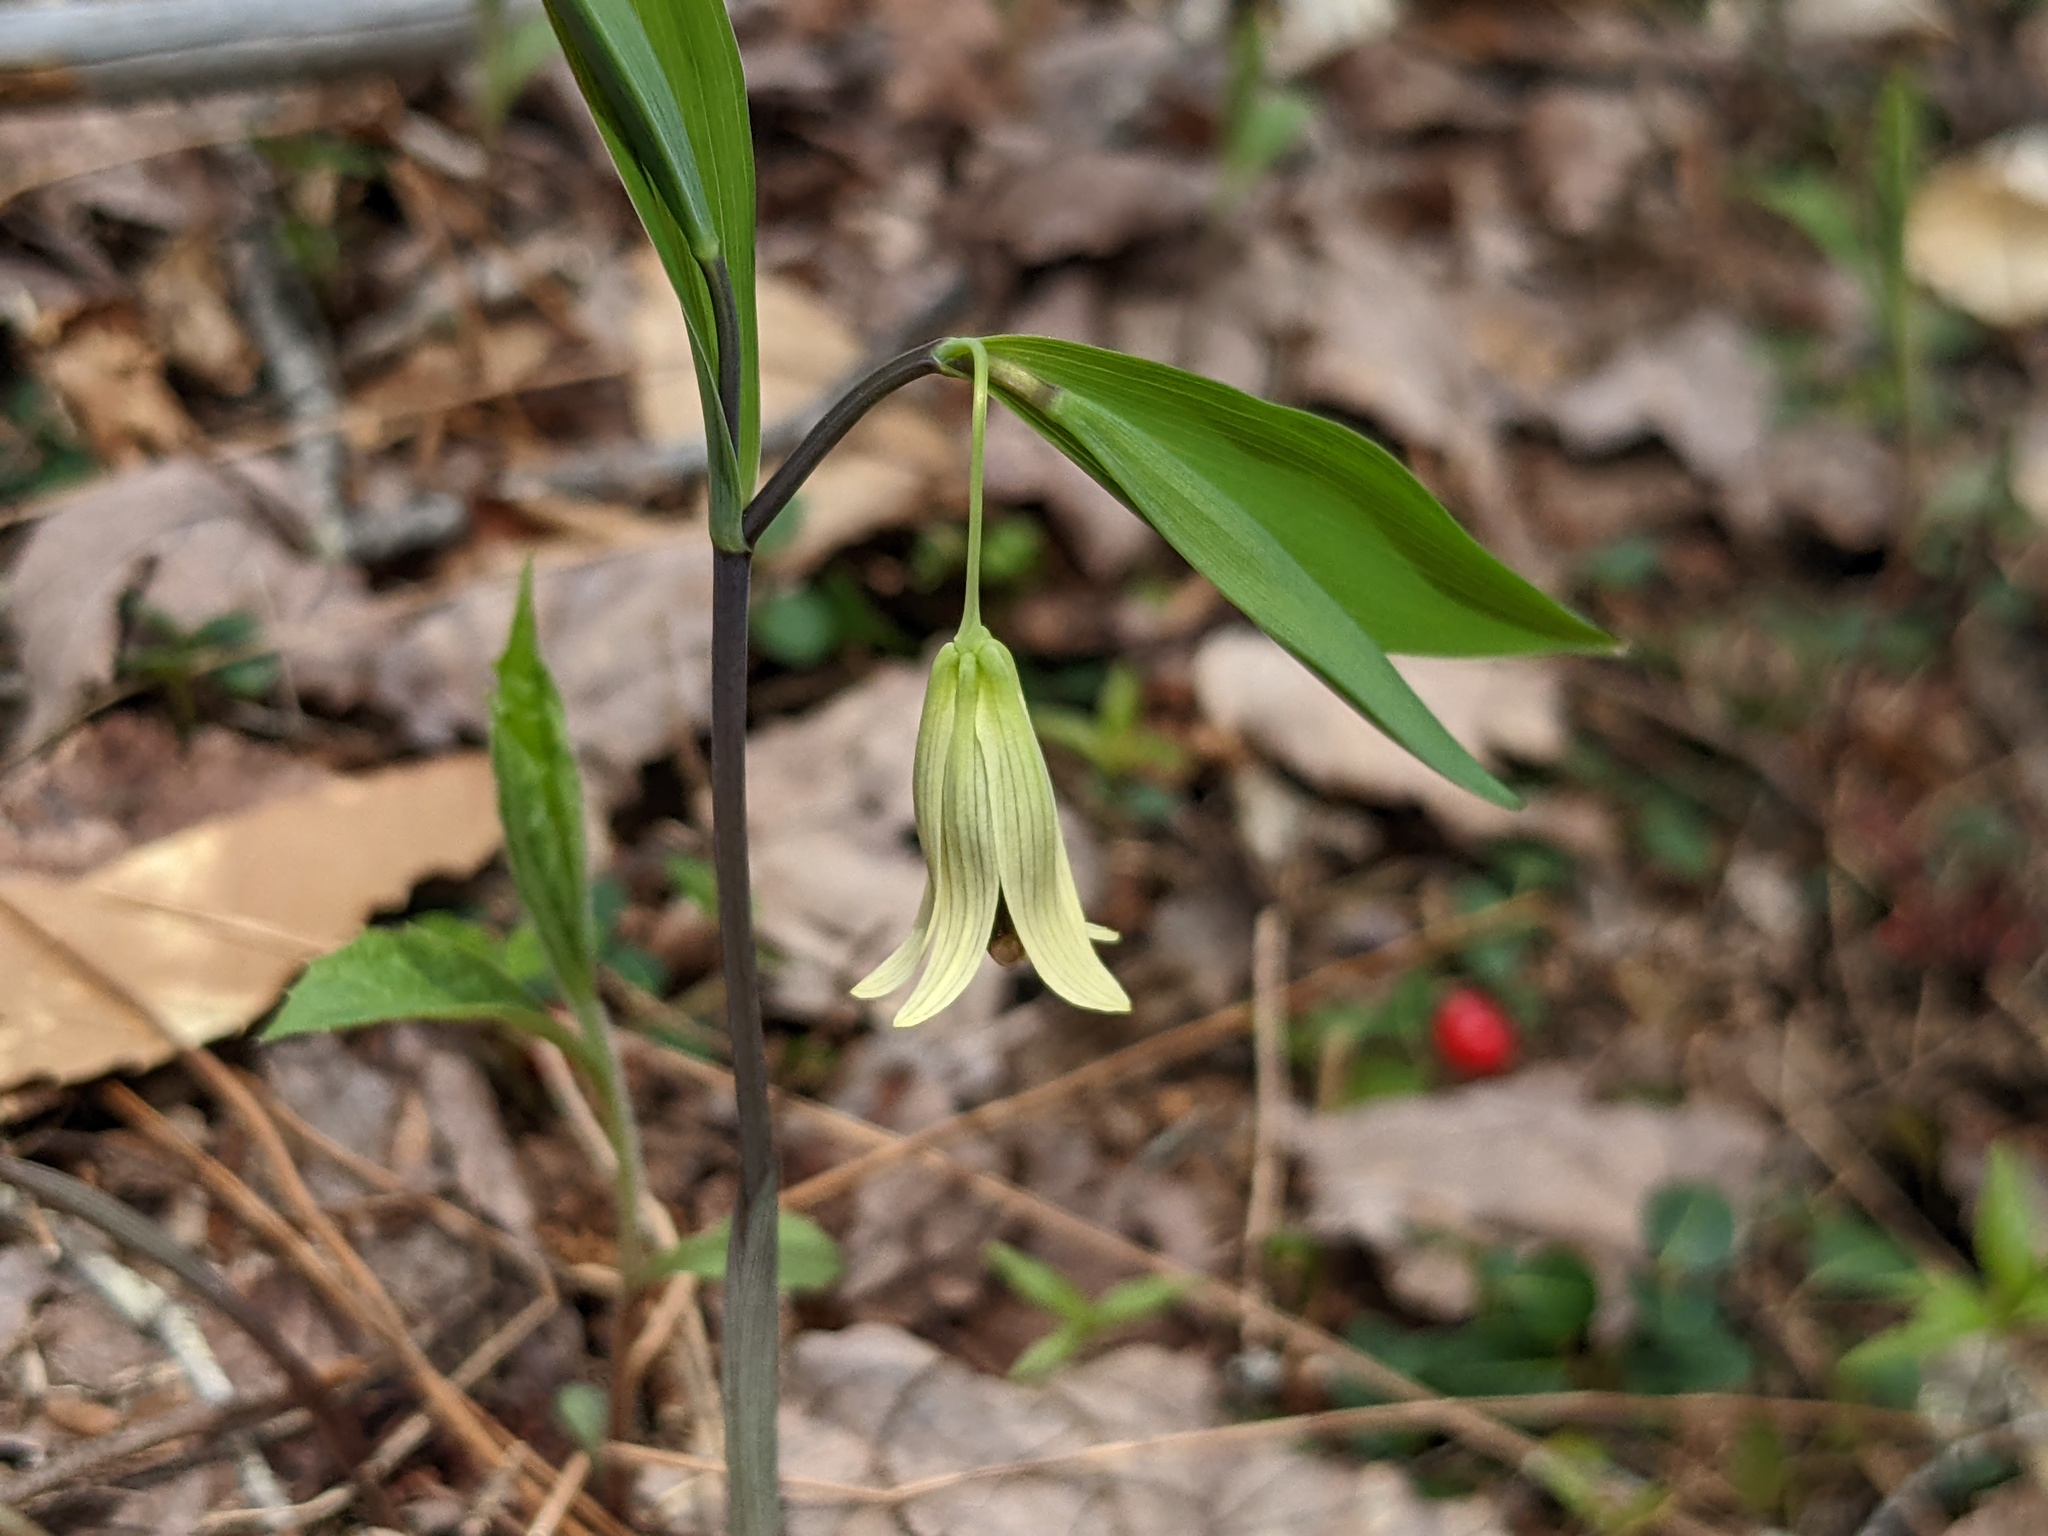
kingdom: Plantae
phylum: Tracheophyta
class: Liliopsida
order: Liliales
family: Colchicaceae
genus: Uvularia
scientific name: Uvularia sessilifolia
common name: Straw-lily
